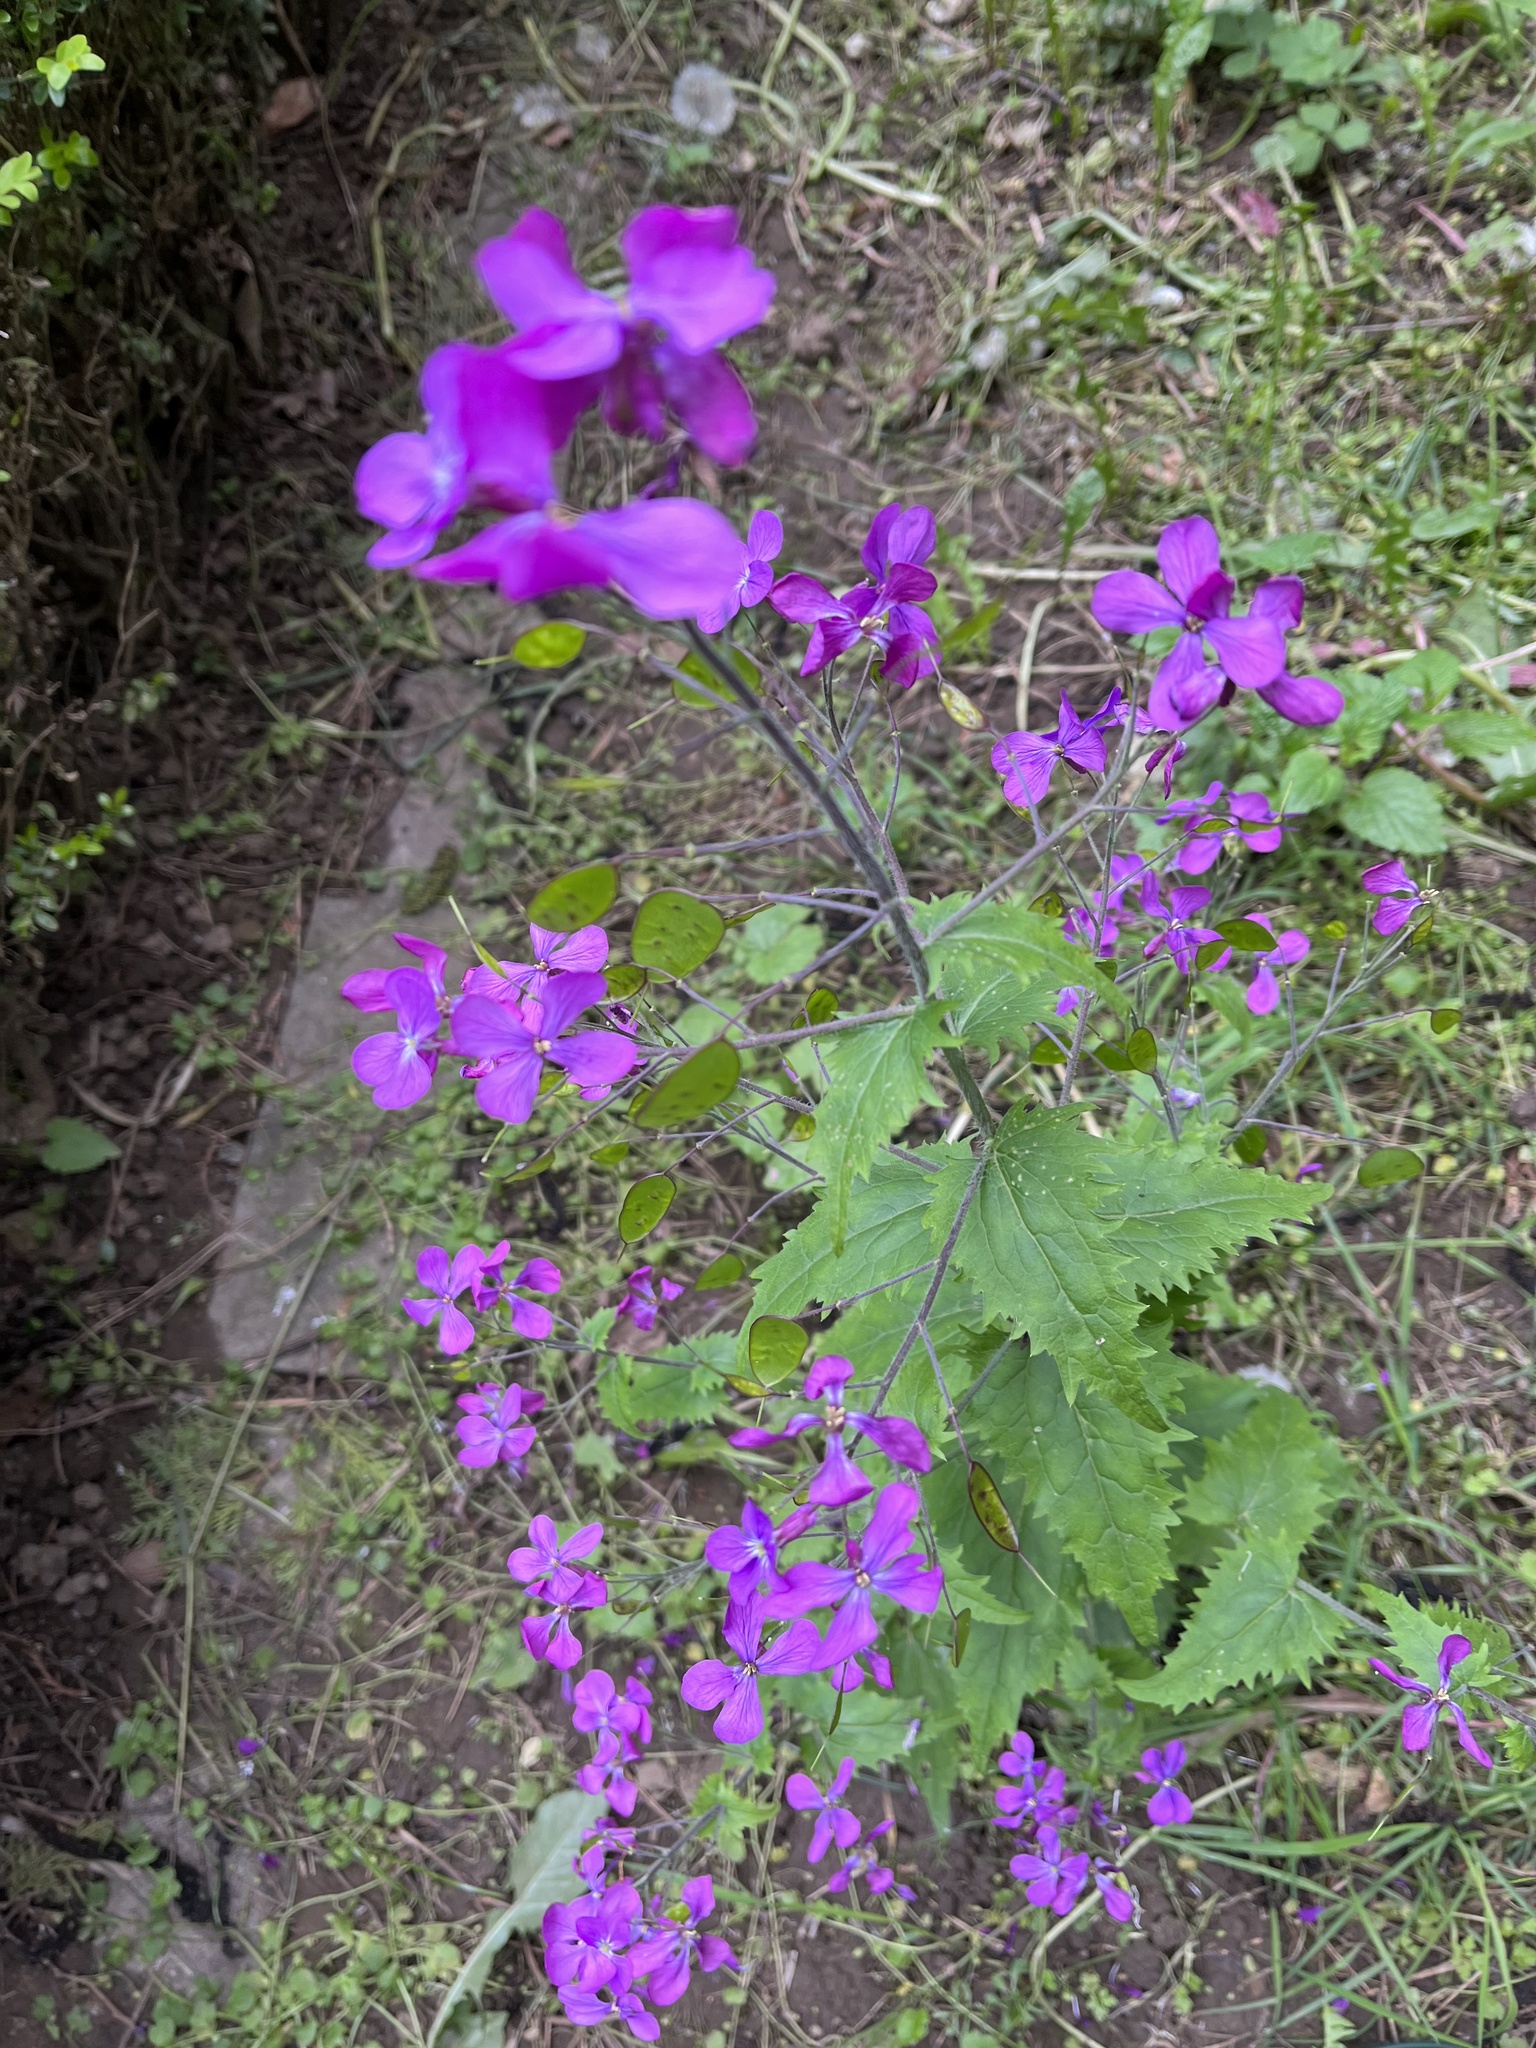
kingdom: Plantae
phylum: Tracheophyta
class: Magnoliopsida
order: Brassicales
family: Brassicaceae
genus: Lunaria
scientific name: Lunaria annua
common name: Honesty
